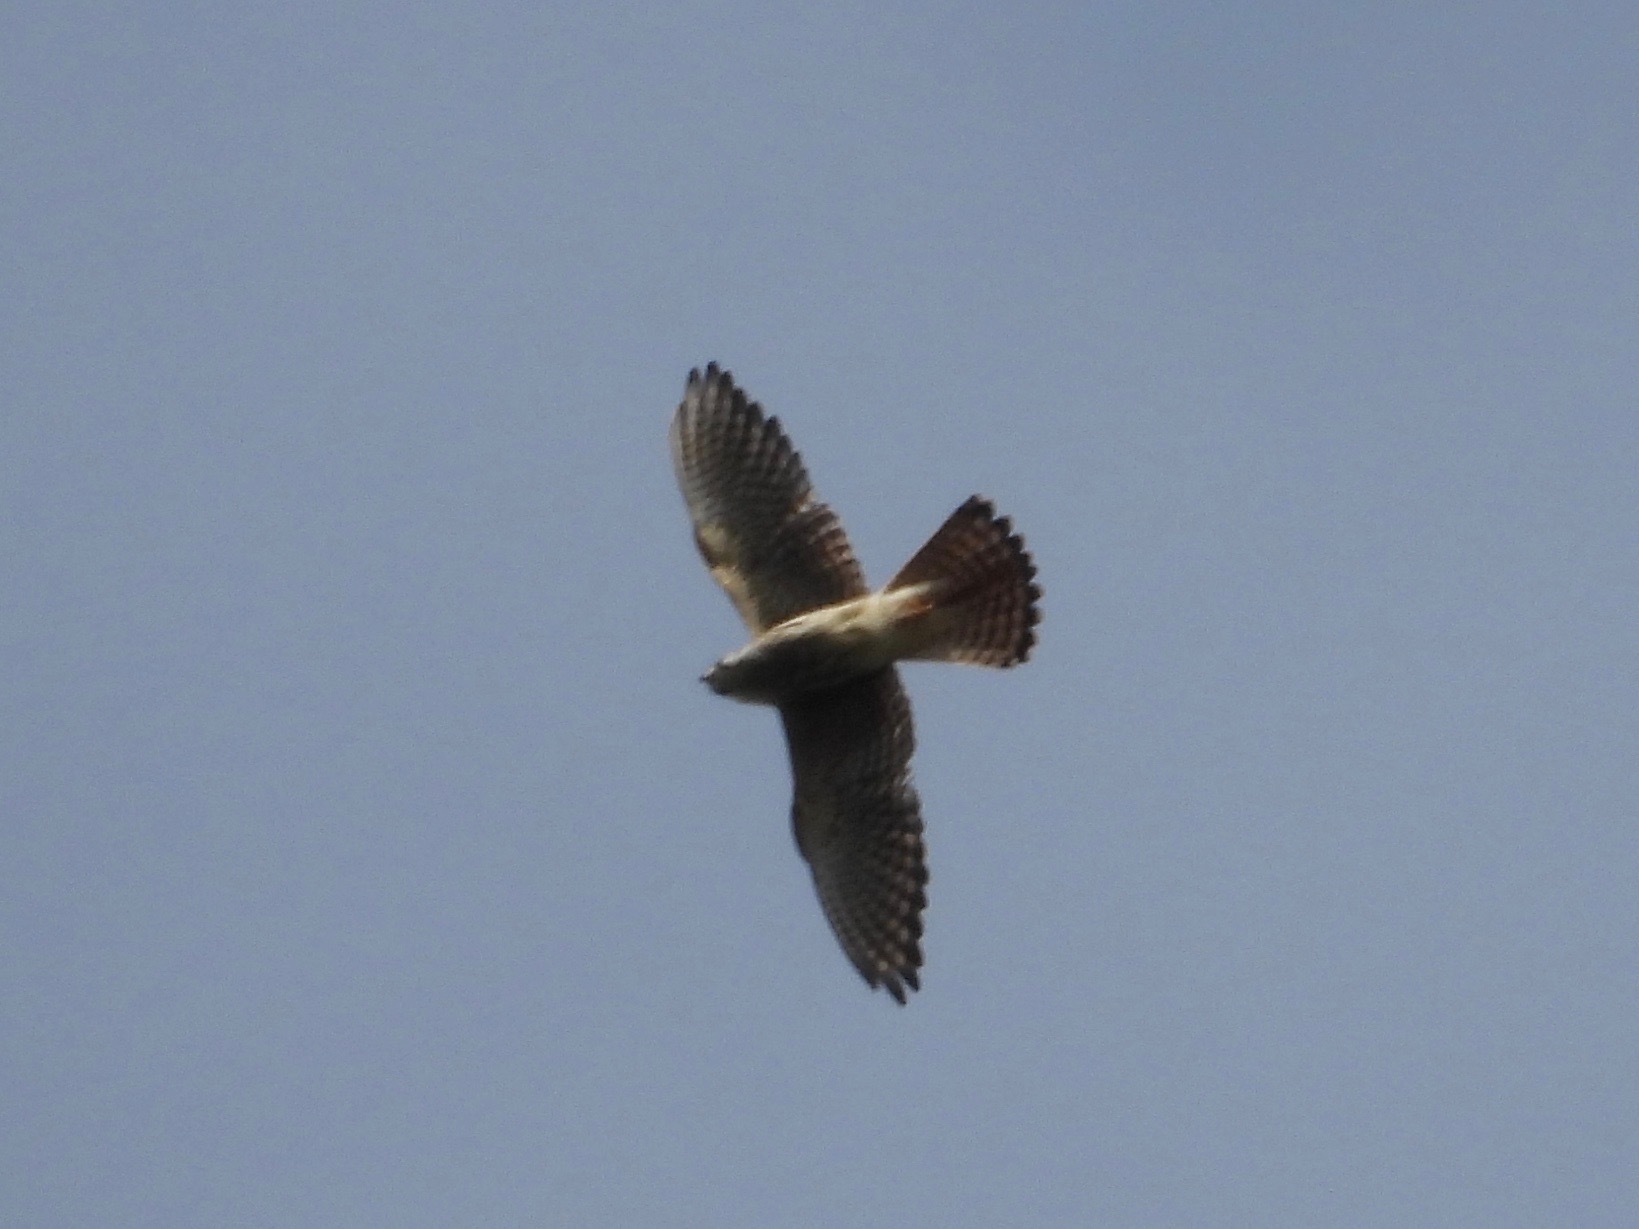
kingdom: Animalia
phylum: Chordata
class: Aves
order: Falconiformes
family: Falconidae
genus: Falco
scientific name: Falco sparverius
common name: American kestrel
